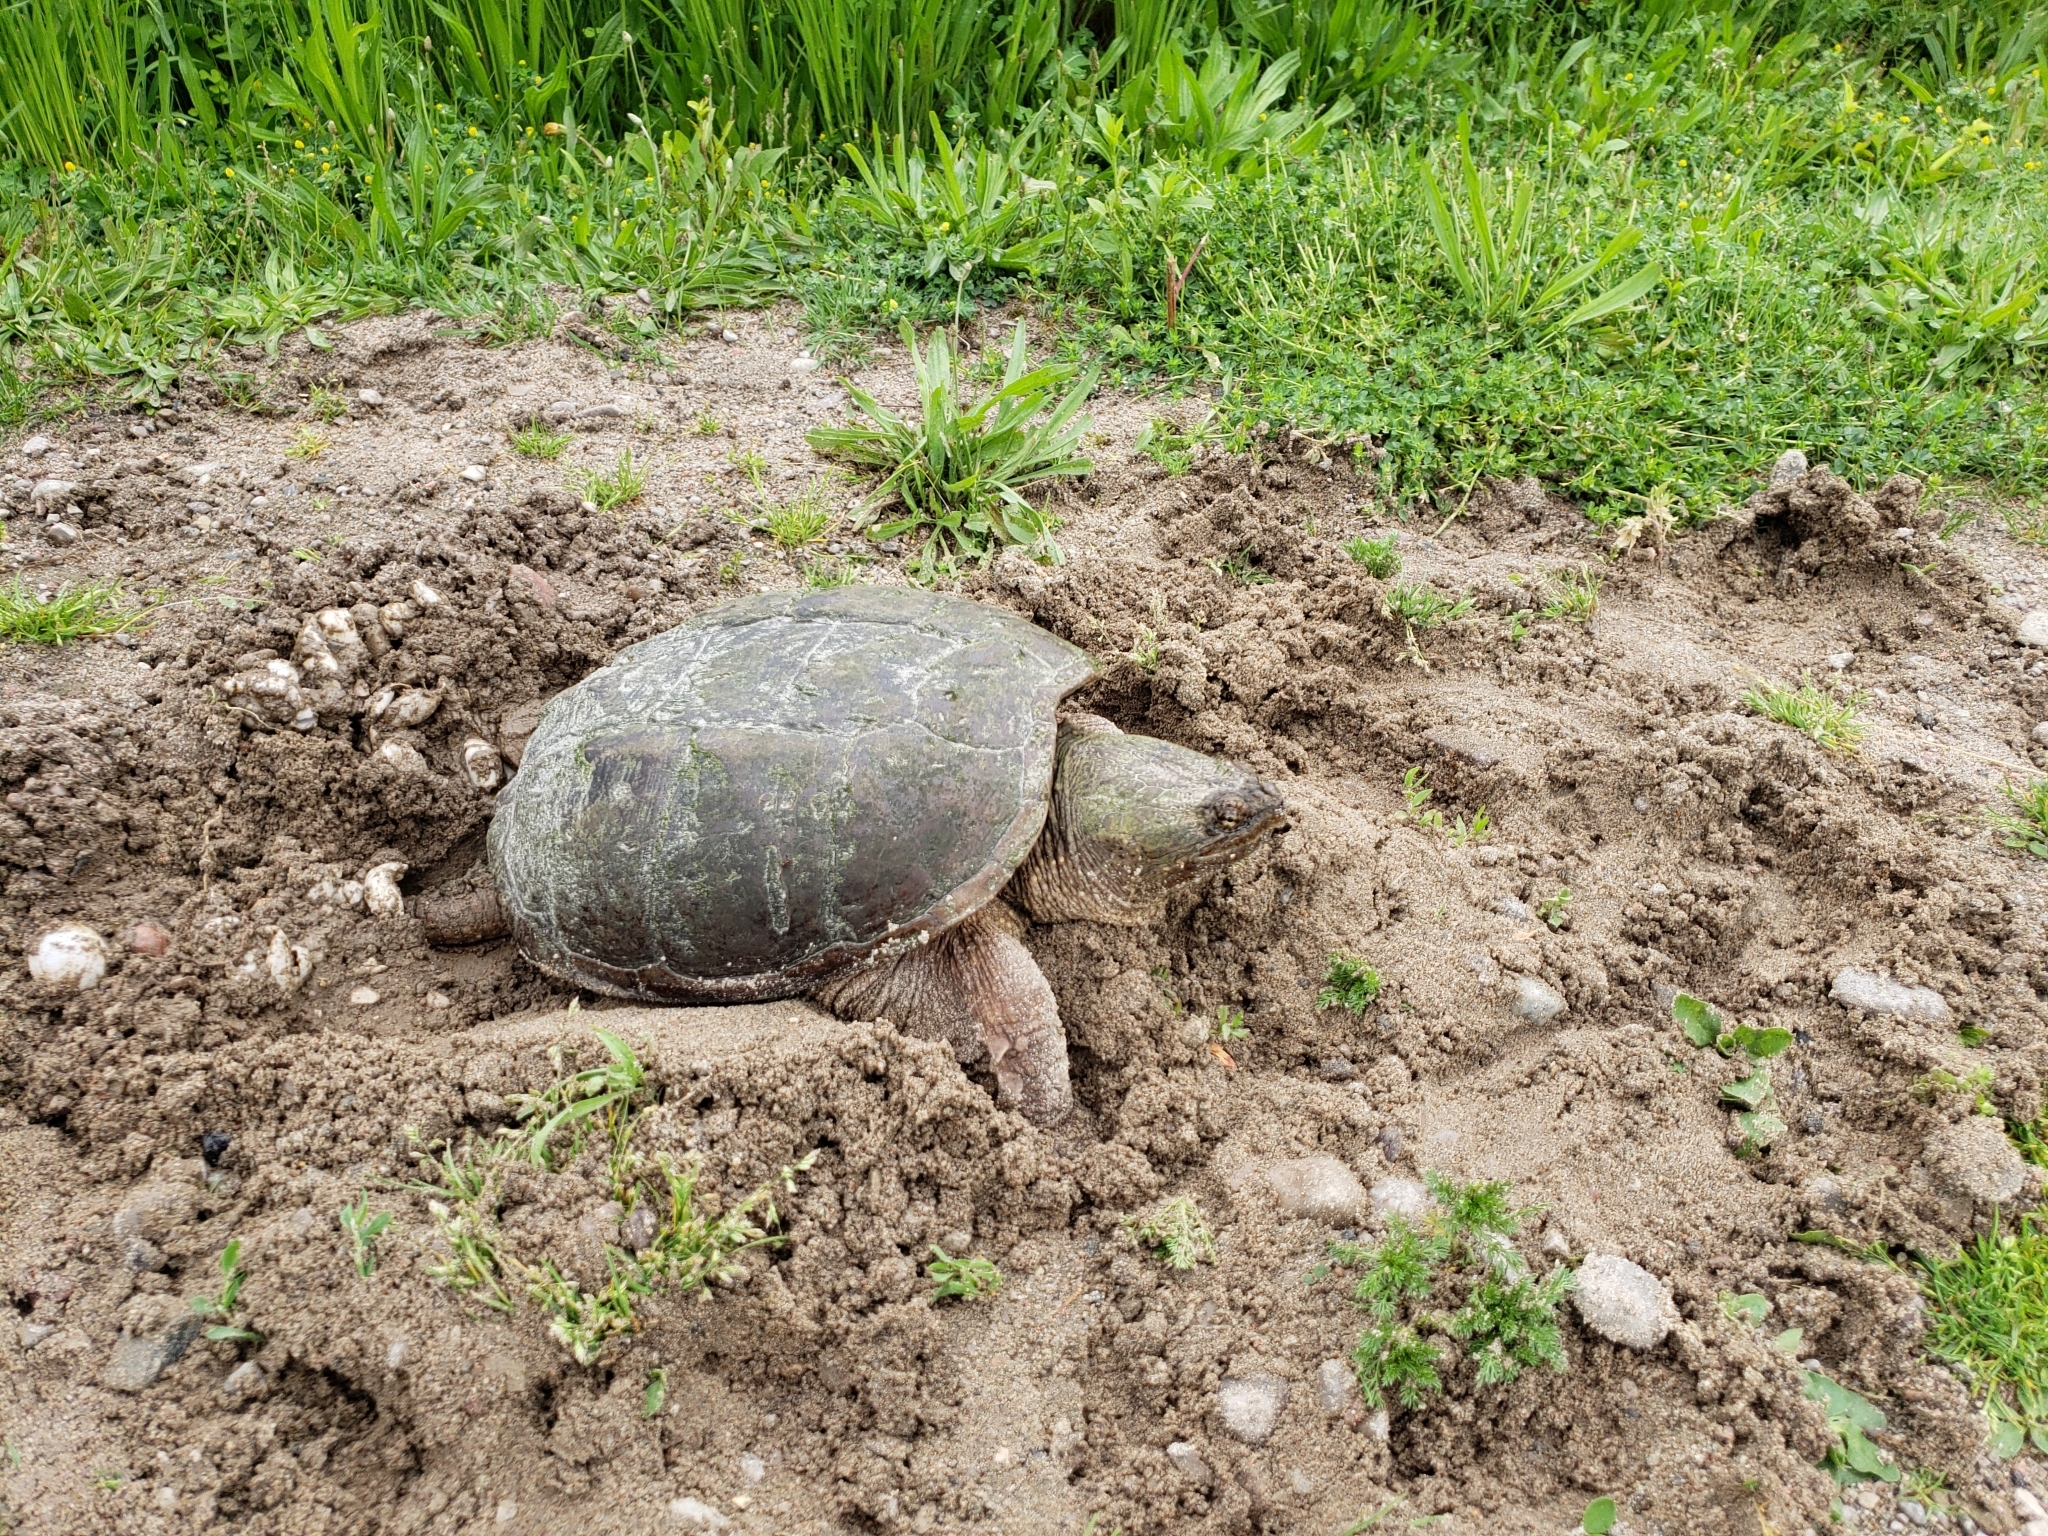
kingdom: Animalia
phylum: Chordata
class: Testudines
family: Chelydridae
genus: Chelydra
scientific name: Chelydra serpentina
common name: Common snapping turtle
